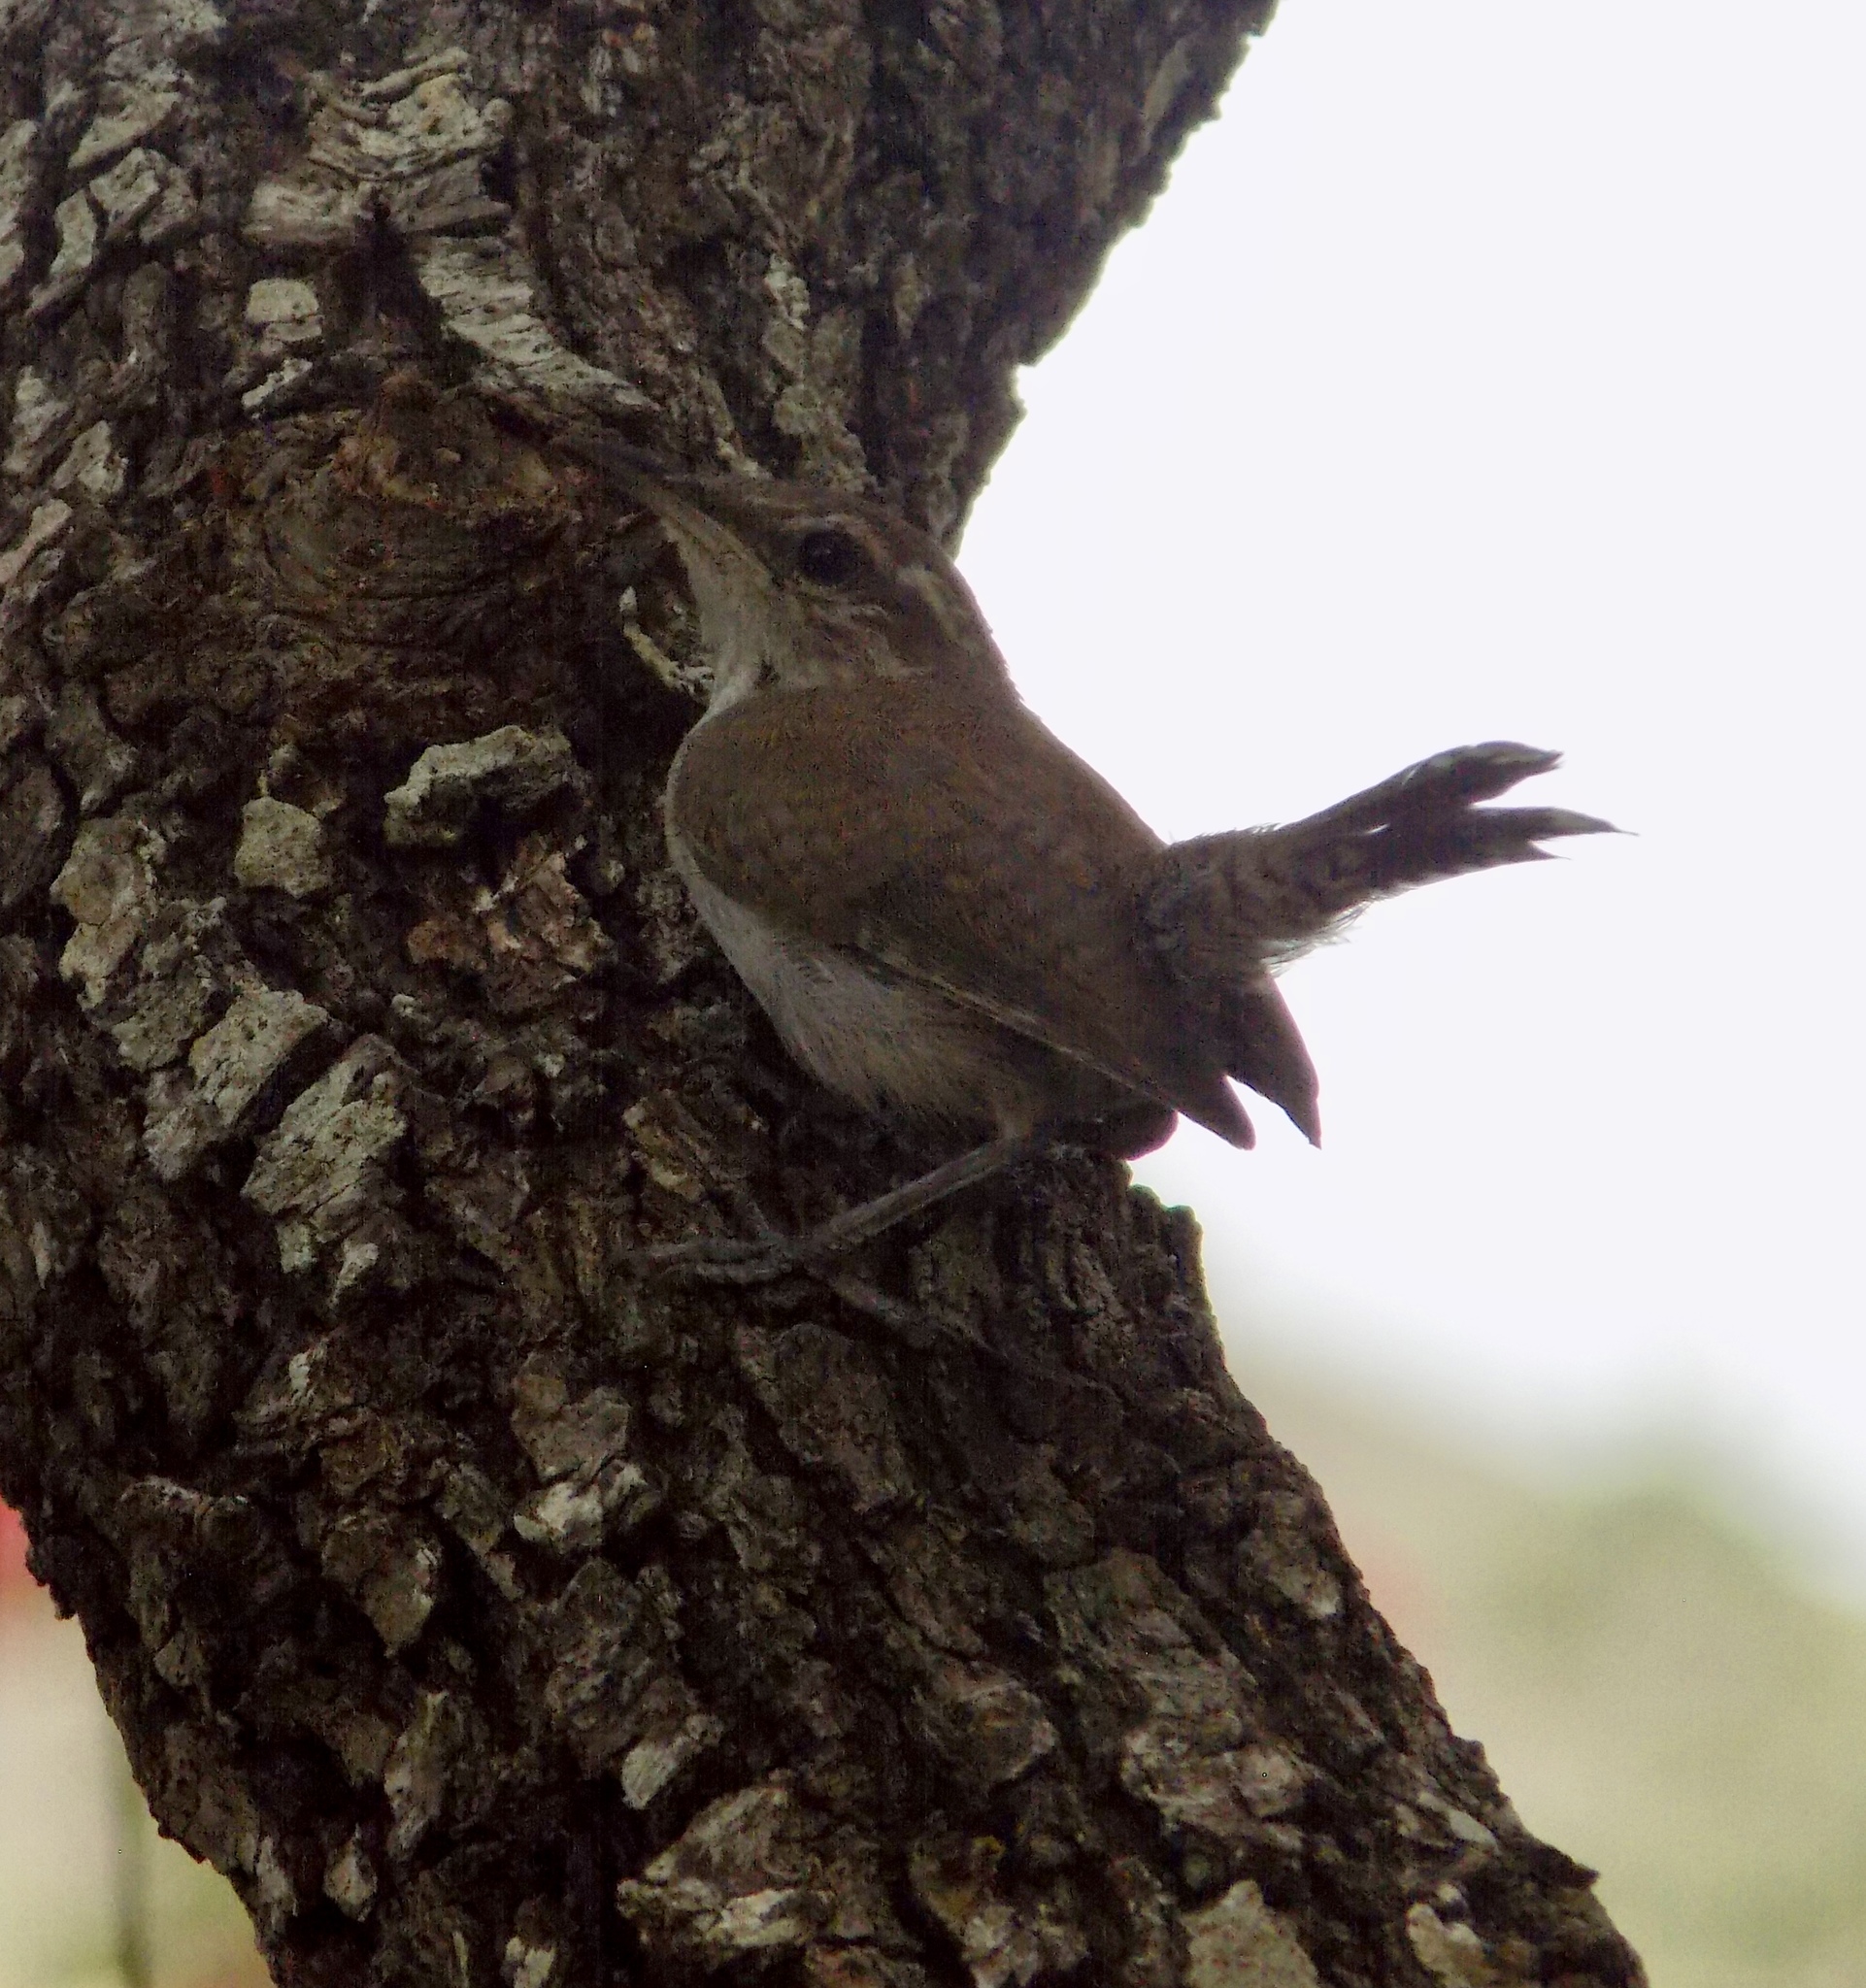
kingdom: Animalia
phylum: Chordata
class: Aves
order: Passeriformes
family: Troglodytidae
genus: Thryomanes
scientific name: Thryomanes bewickii
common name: Bewick's wren
